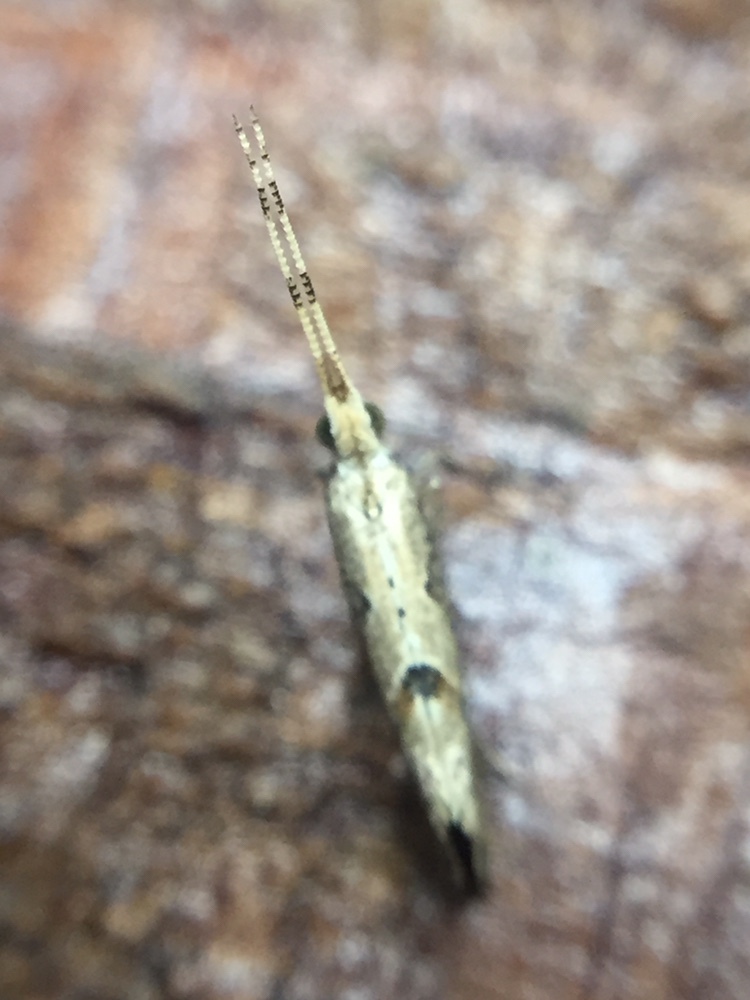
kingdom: Animalia
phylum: Arthropoda
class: Insecta
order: Lepidoptera
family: Plutellidae
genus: Leuroperna
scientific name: Leuroperna sera
